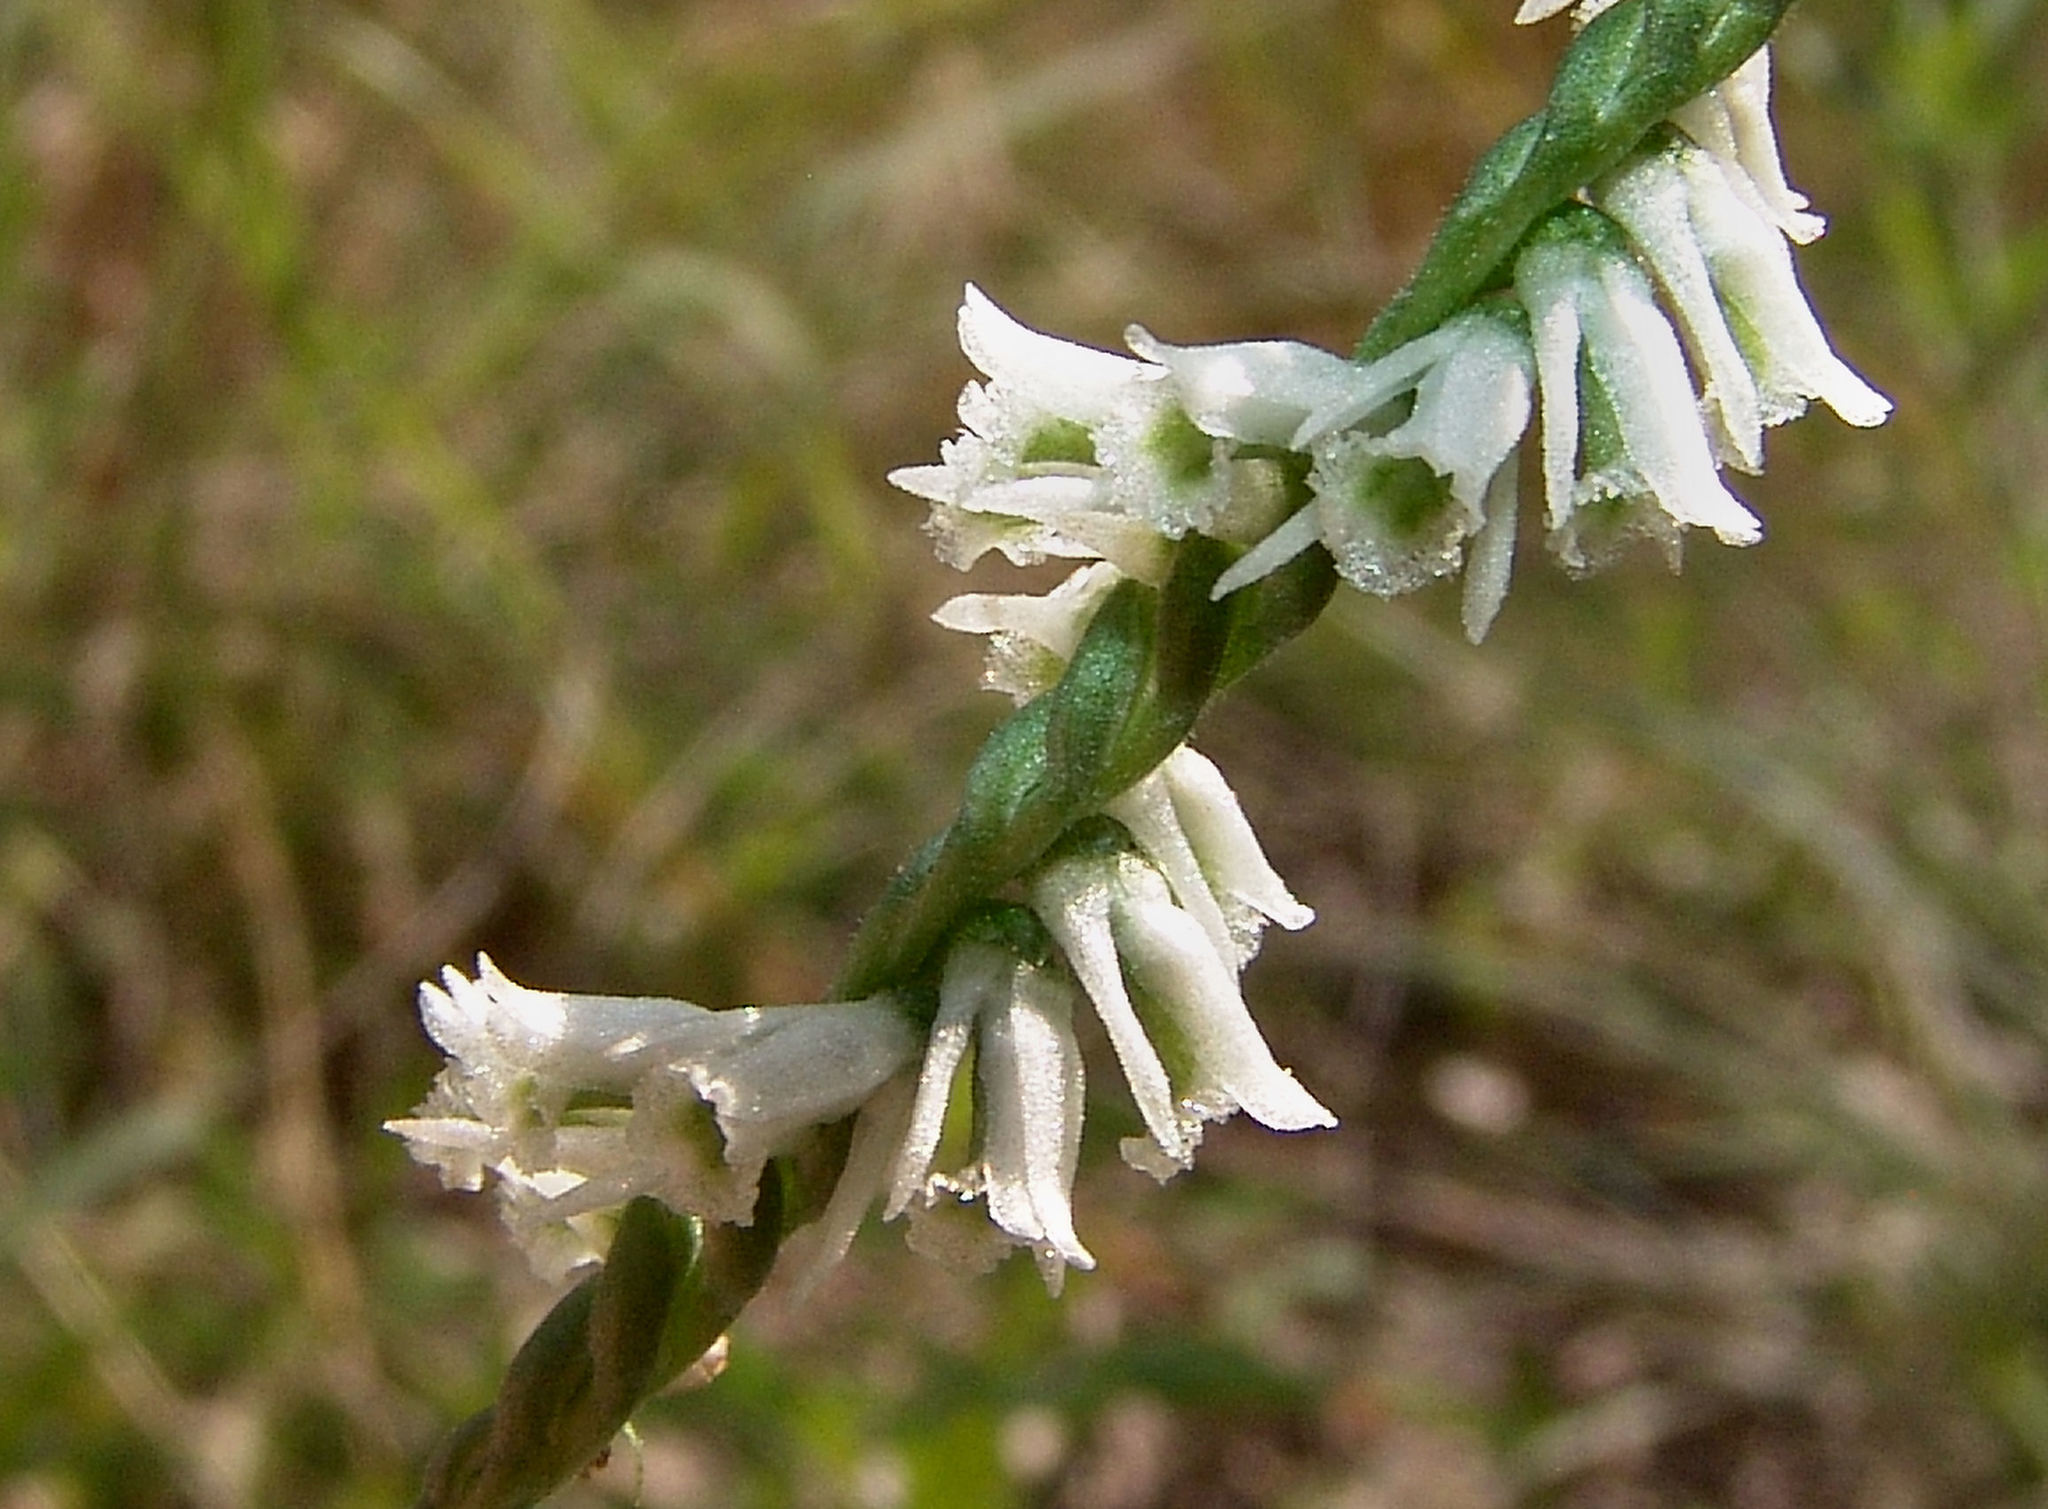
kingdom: Plantae
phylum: Tracheophyta
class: Liliopsida
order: Asparagales
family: Orchidaceae
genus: Spiranthes
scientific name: Spiranthes lacera
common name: Northern slender ladies'-tresses
